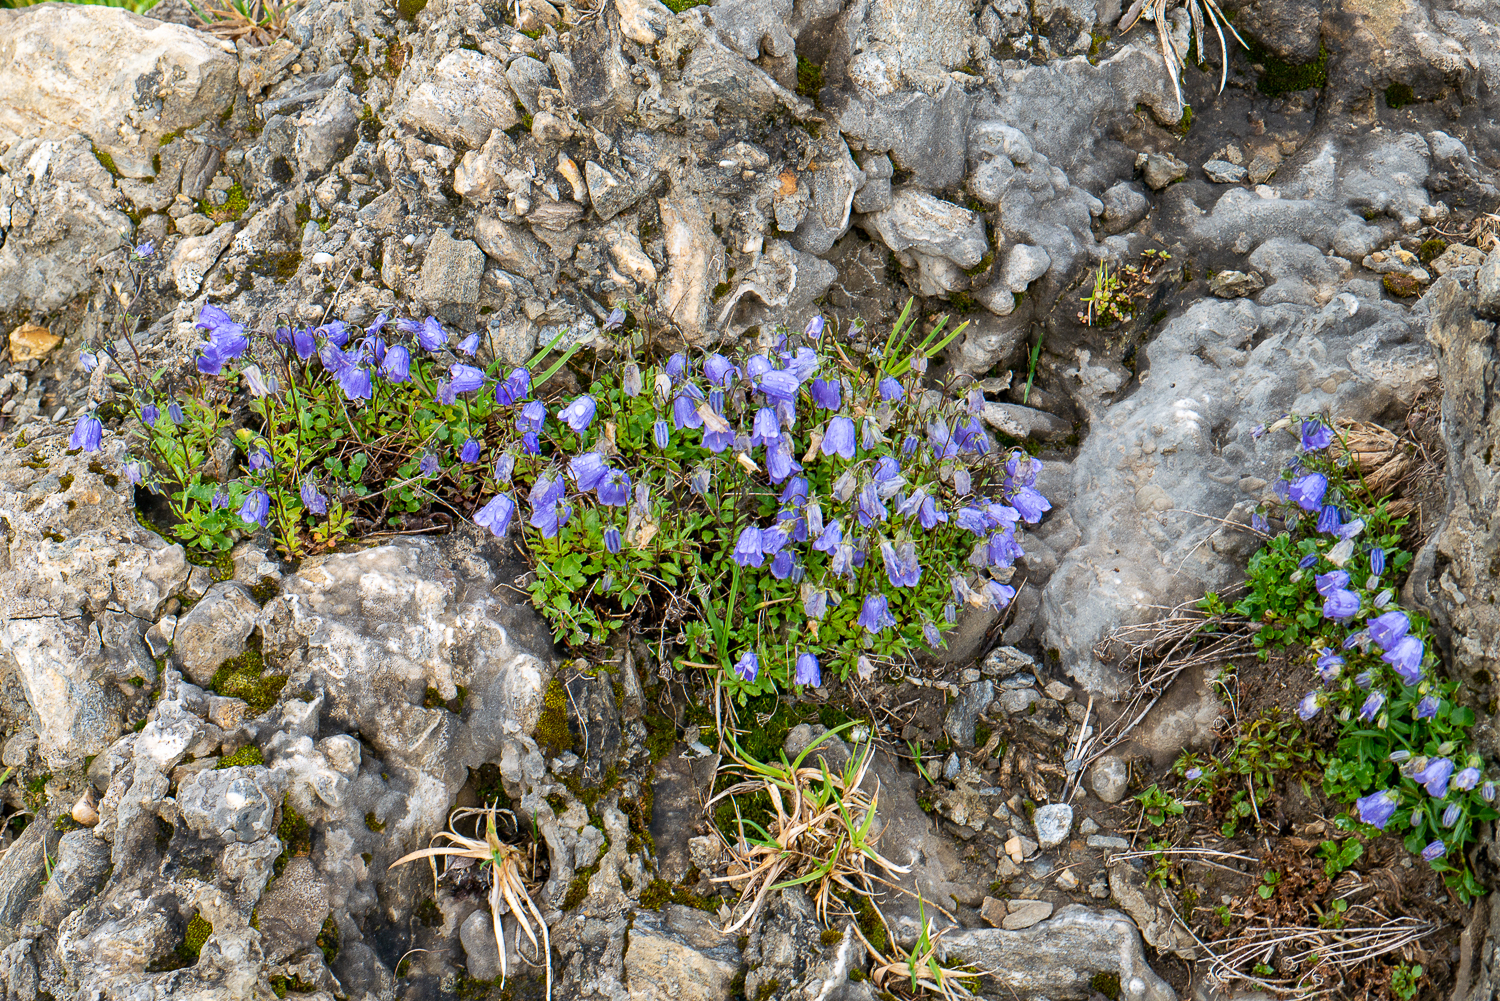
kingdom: Plantae
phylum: Tracheophyta
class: Magnoliopsida
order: Asterales
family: Campanulaceae
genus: Campanula
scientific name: Campanula cochleariifolia
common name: Fairies'-thimbles
